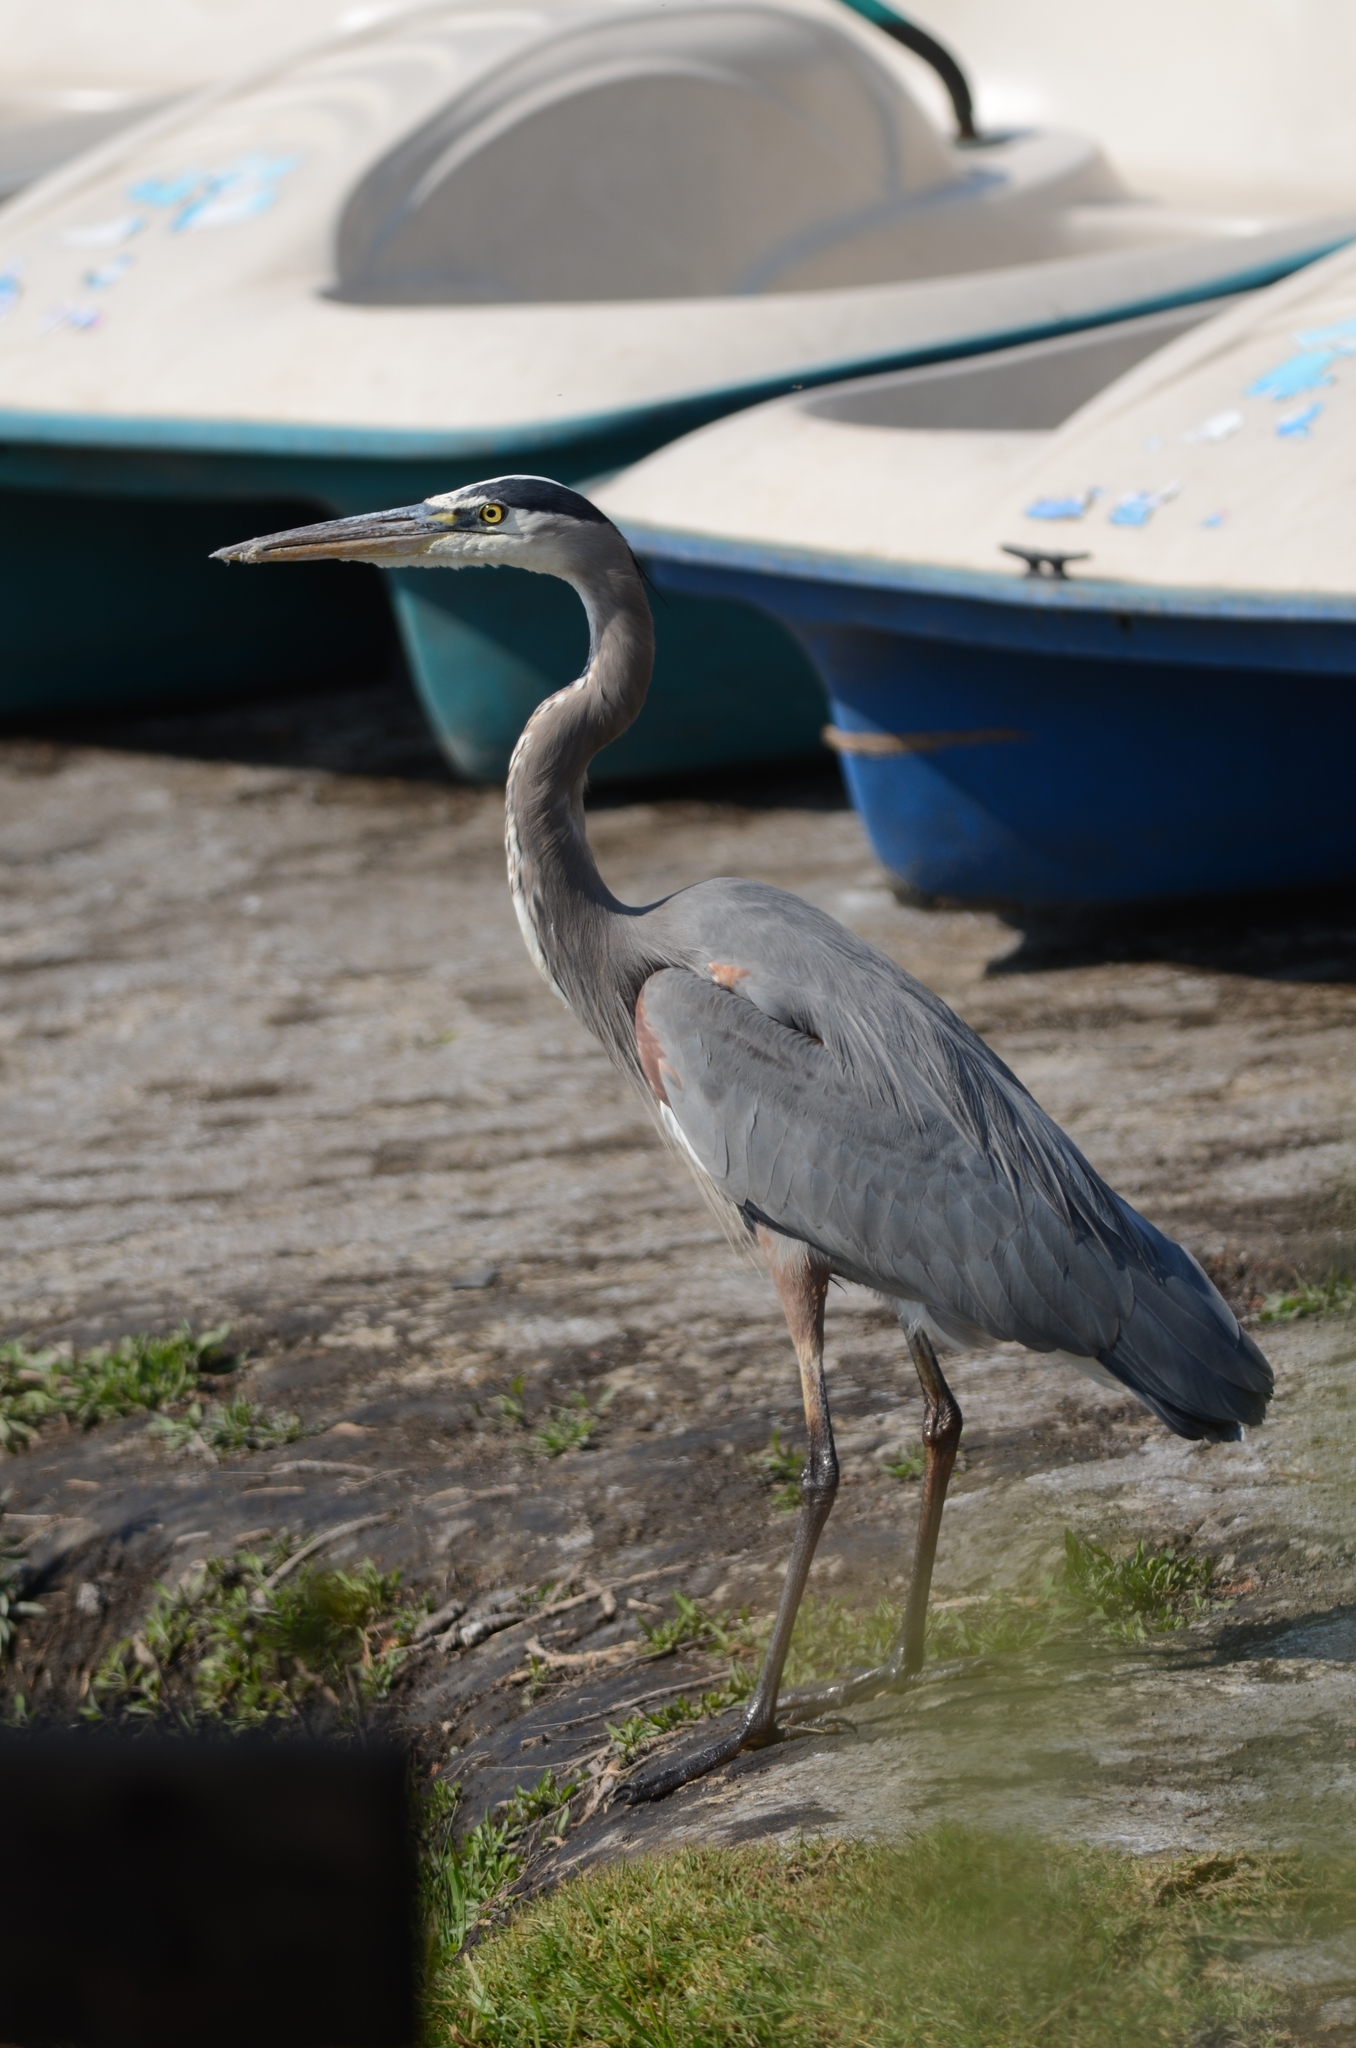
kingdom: Animalia
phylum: Chordata
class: Aves
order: Pelecaniformes
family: Ardeidae
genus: Ardea
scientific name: Ardea herodias
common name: Great blue heron
